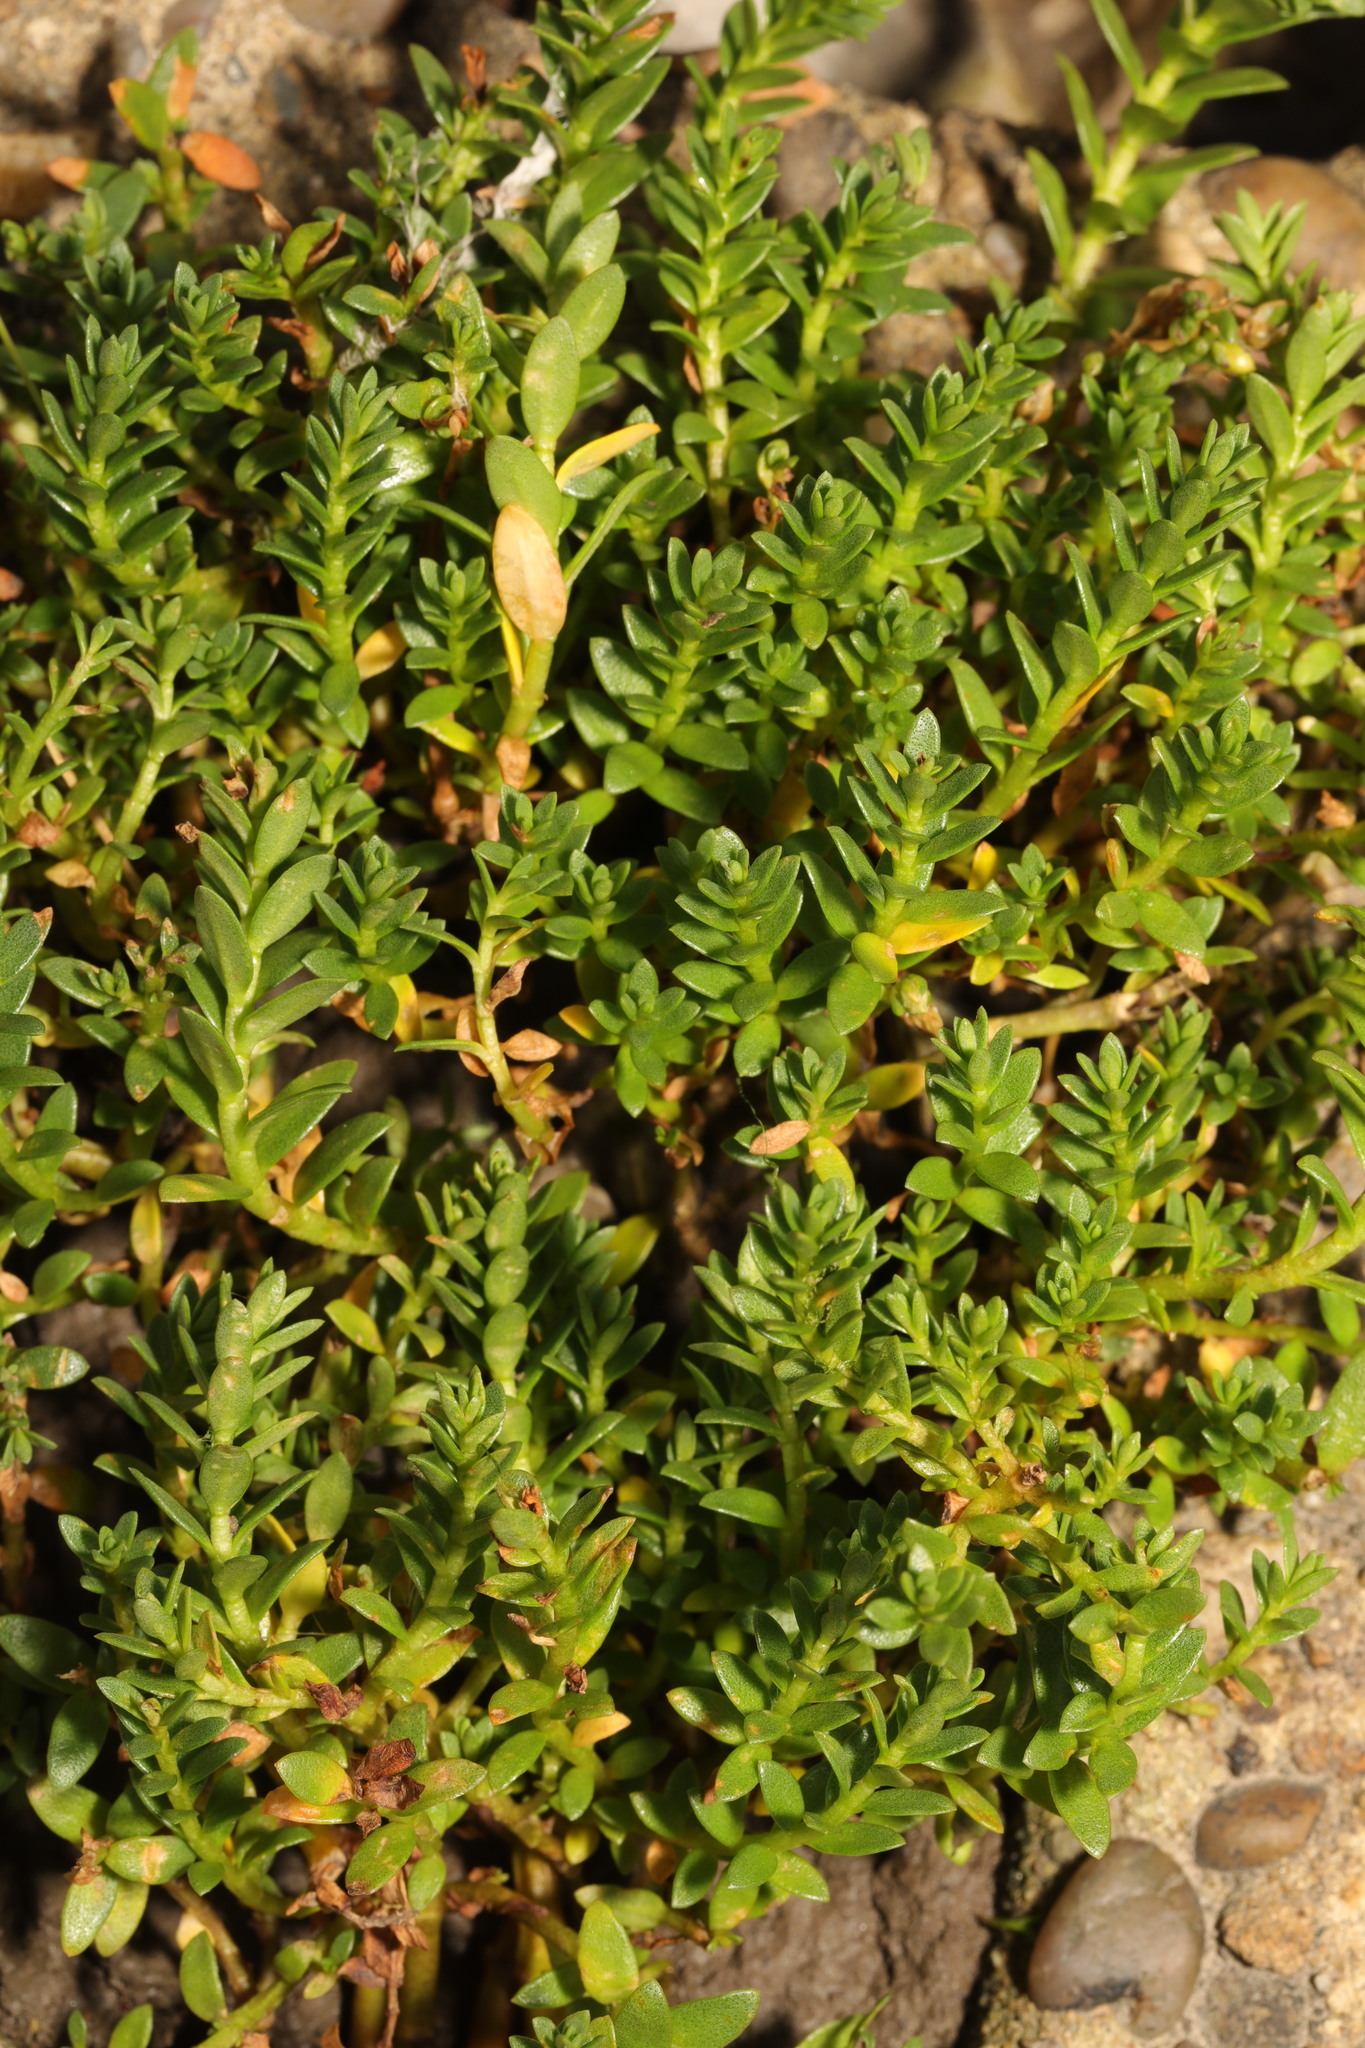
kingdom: Plantae
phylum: Tracheophyta
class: Magnoliopsida
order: Ericales
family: Primulaceae
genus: Lysimachia
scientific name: Lysimachia maritima
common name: Sea milkwort
